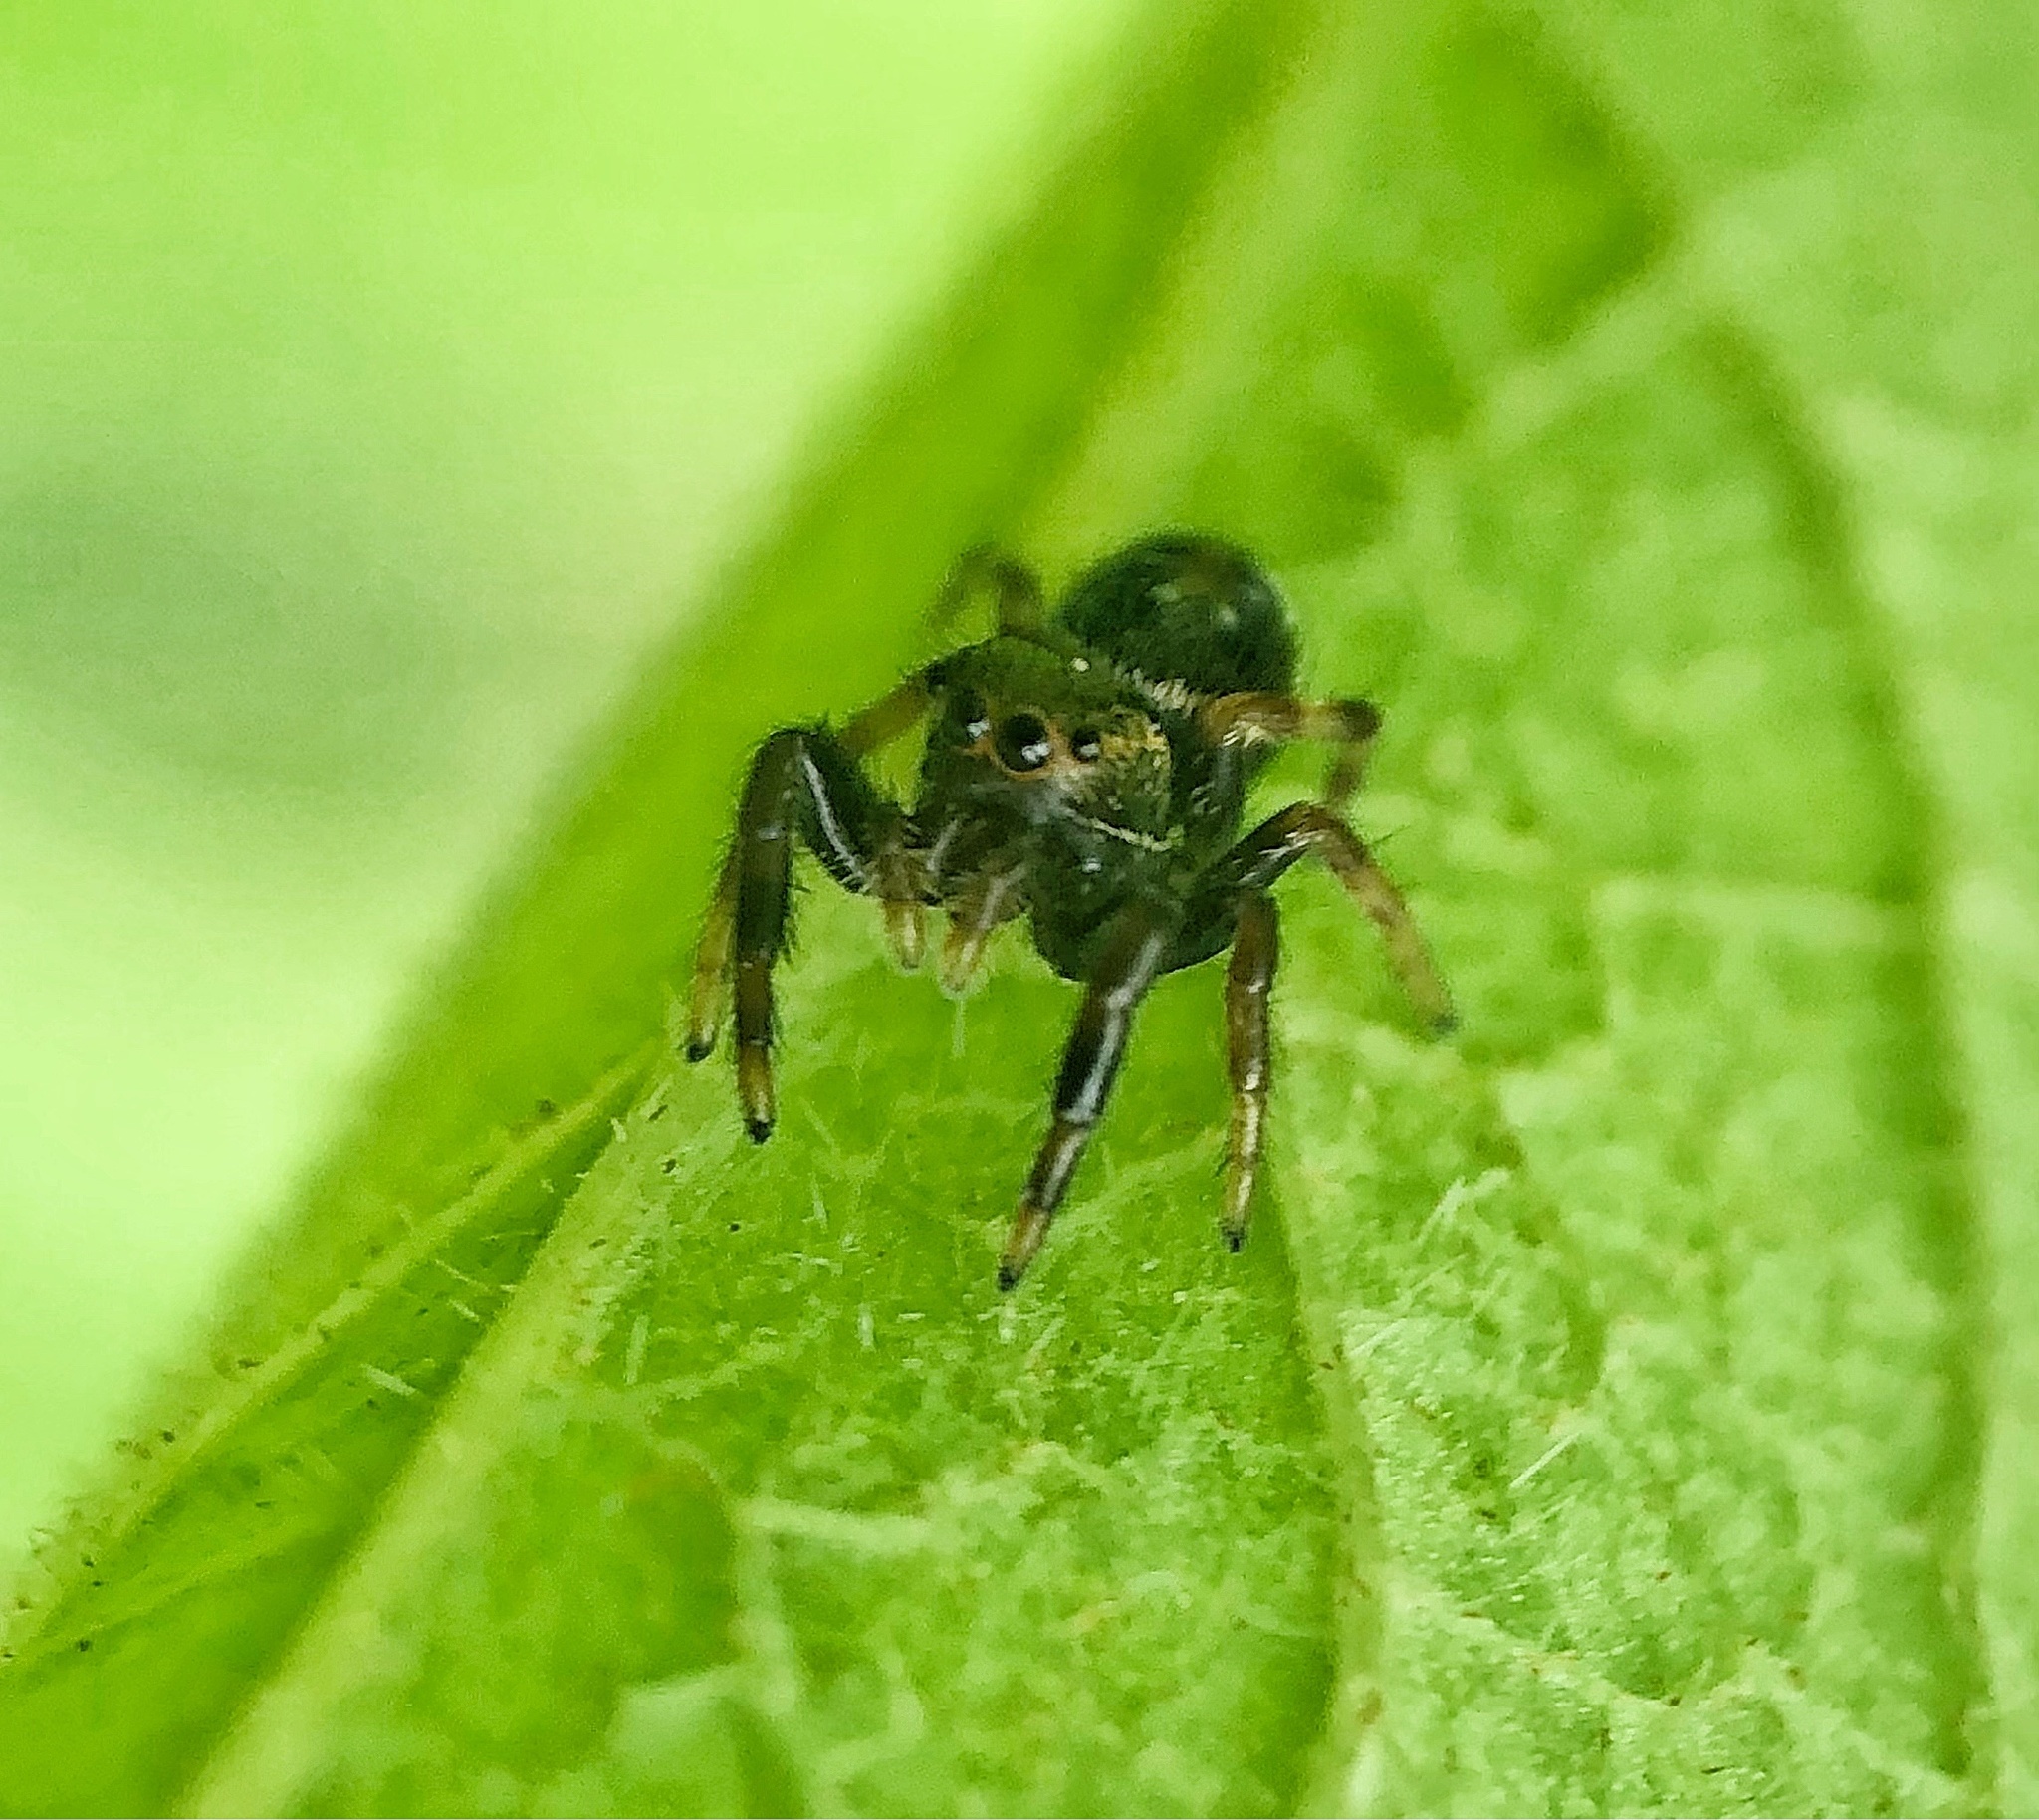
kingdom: Animalia
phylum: Arthropoda
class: Arachnida
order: Araneae
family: Salticidae
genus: Paraphidippus
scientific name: Paraphidippus aurantius
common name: Jumping spiders
